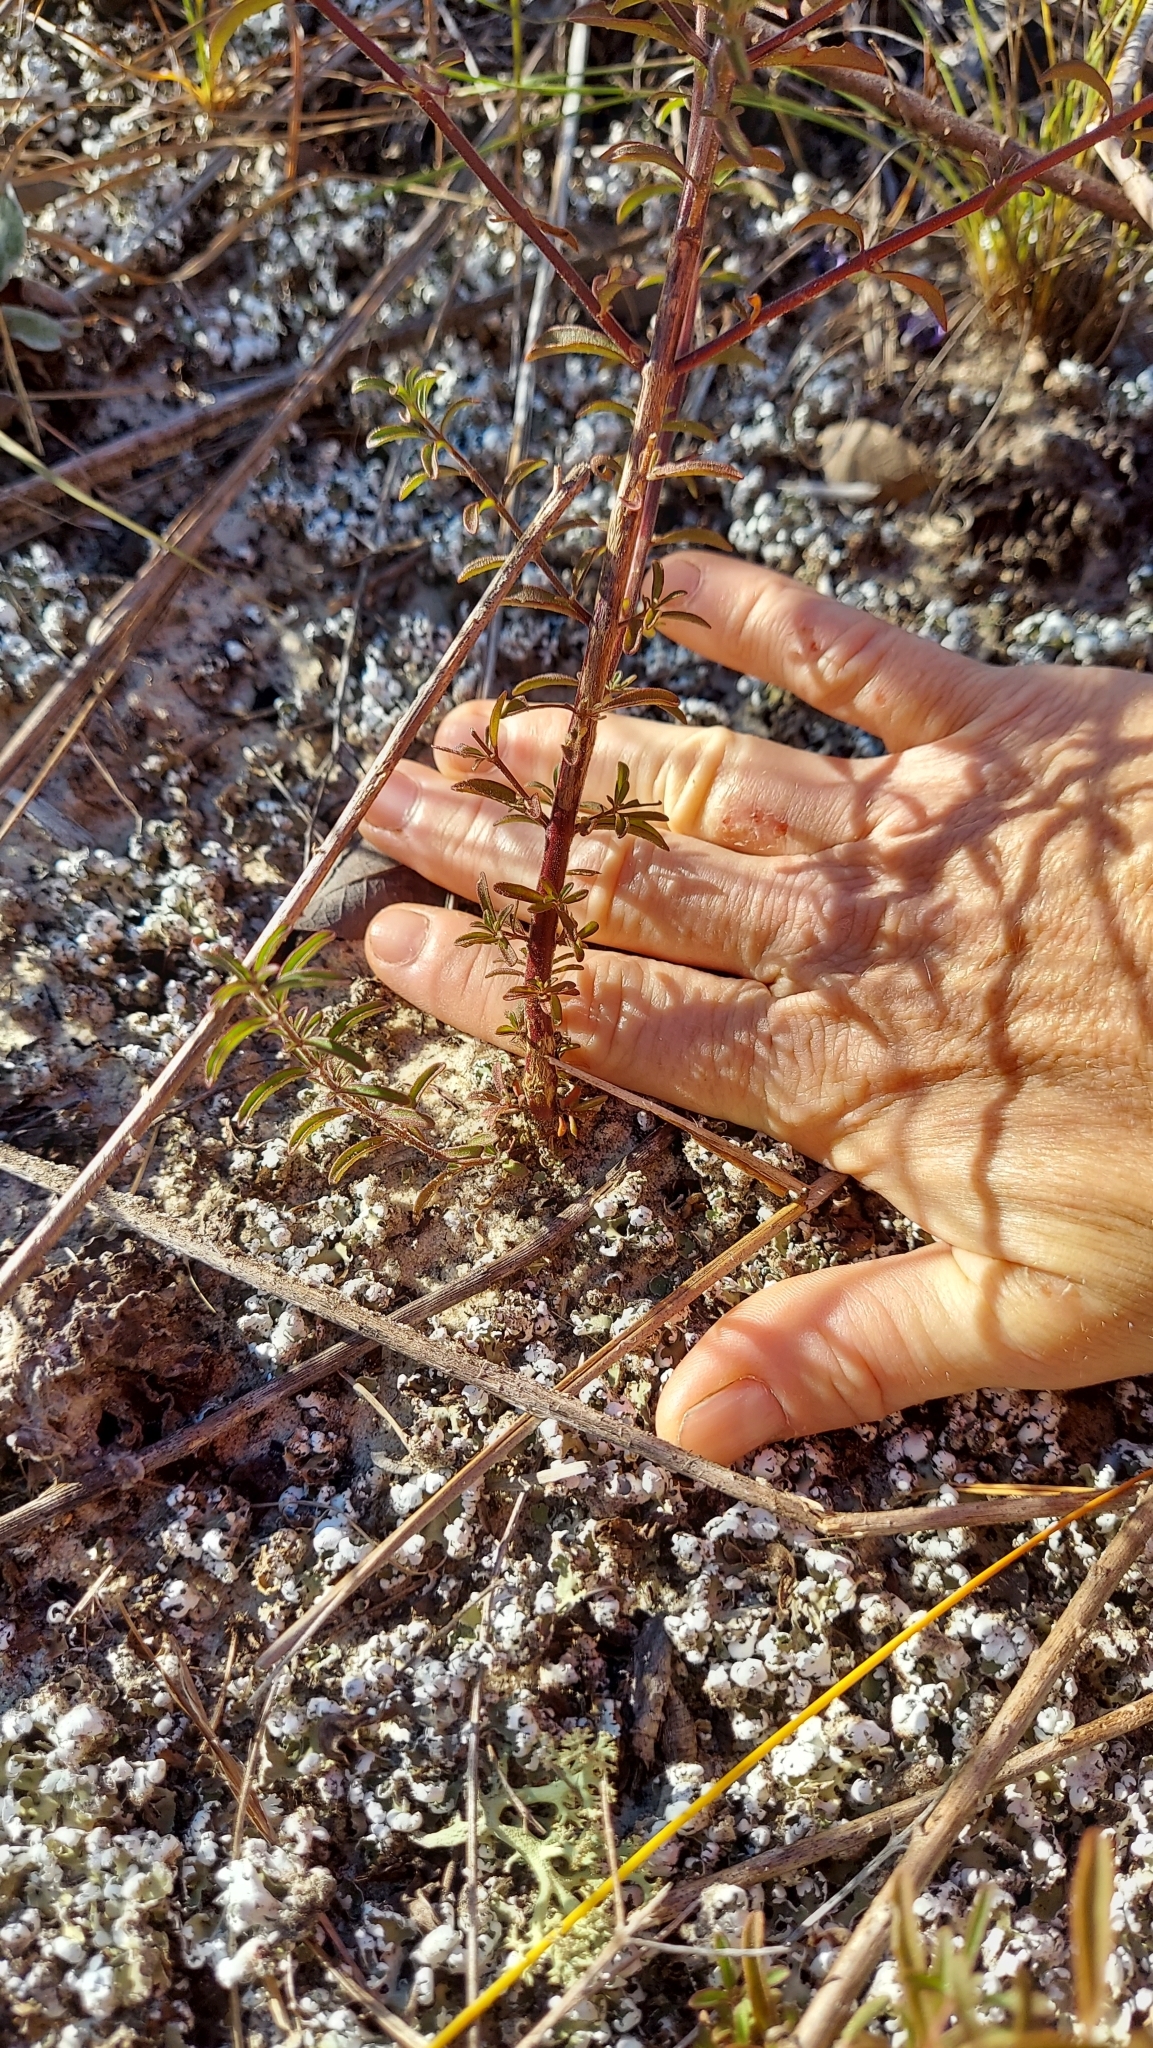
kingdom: Plantae
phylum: Tracheophyta
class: Magnoliopsida
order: Lamiales
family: Lamiaceae
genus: Trichostema
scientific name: Trichostema microphyllum
